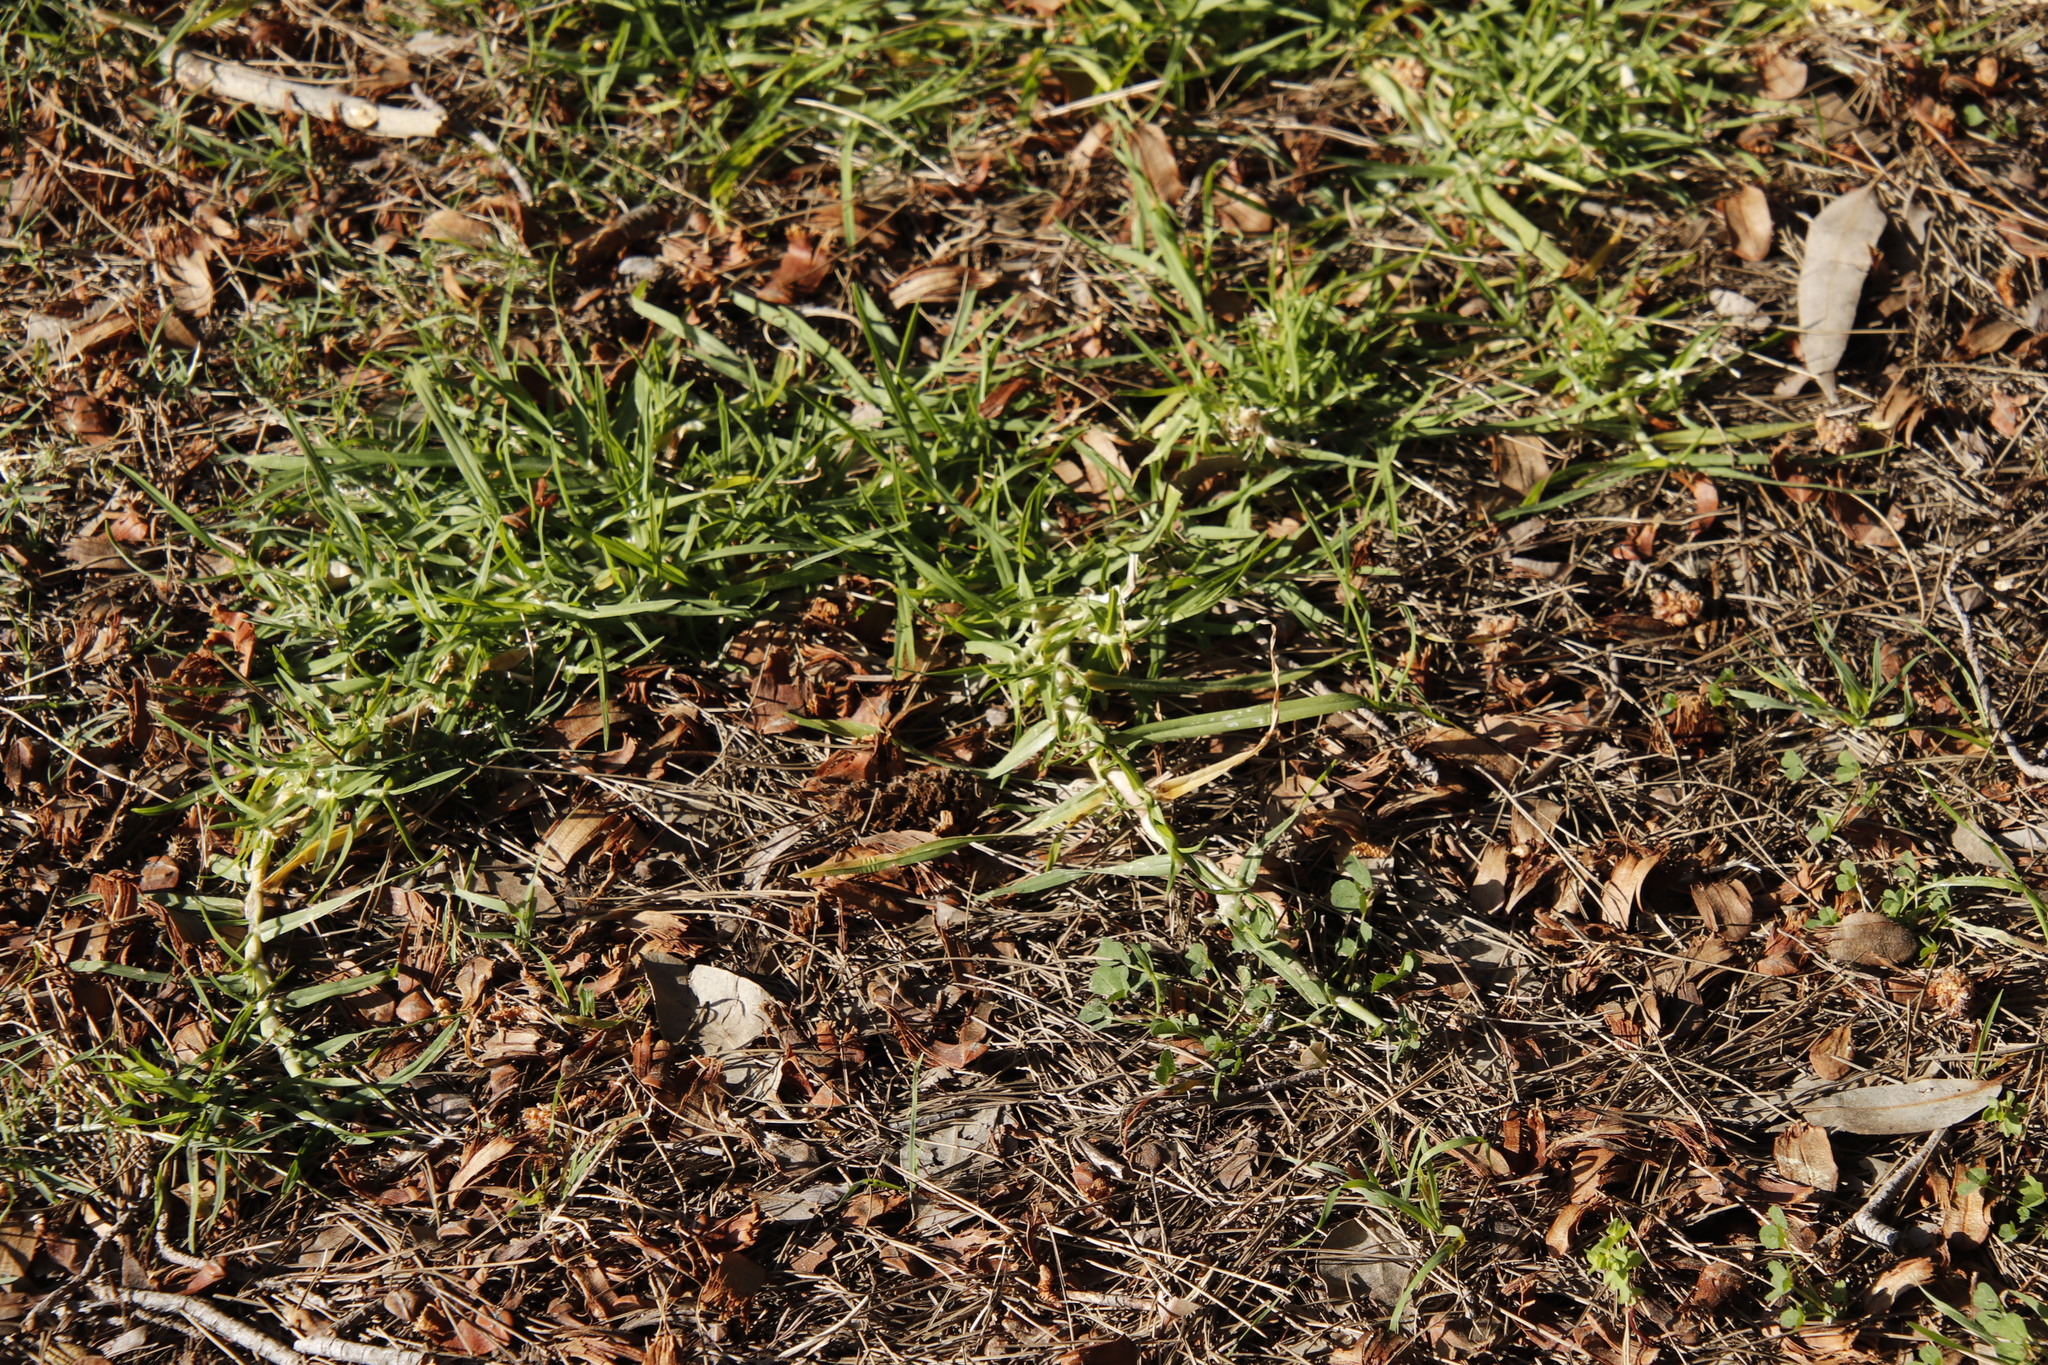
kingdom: Plantae
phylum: Tracheophyta
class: Liliopsida
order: Poales
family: Poaceae
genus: Cenchrus
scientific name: Cenchrus clandestinus
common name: Kikuyugrass
